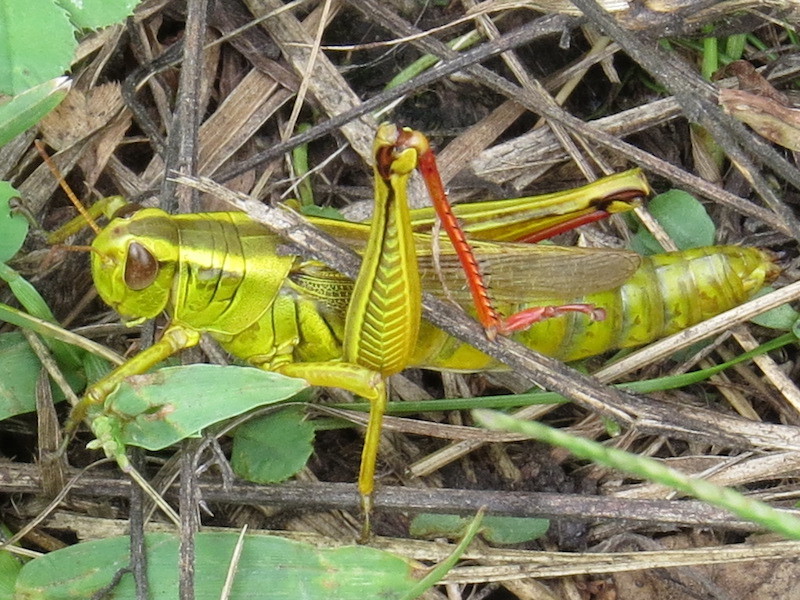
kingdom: Animalia
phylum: Arthropoda
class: Insecta
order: Orthoptera
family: Acrididae
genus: Melanoplus
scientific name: Melanoplus bivittatus
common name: Two-striped grasshopper
